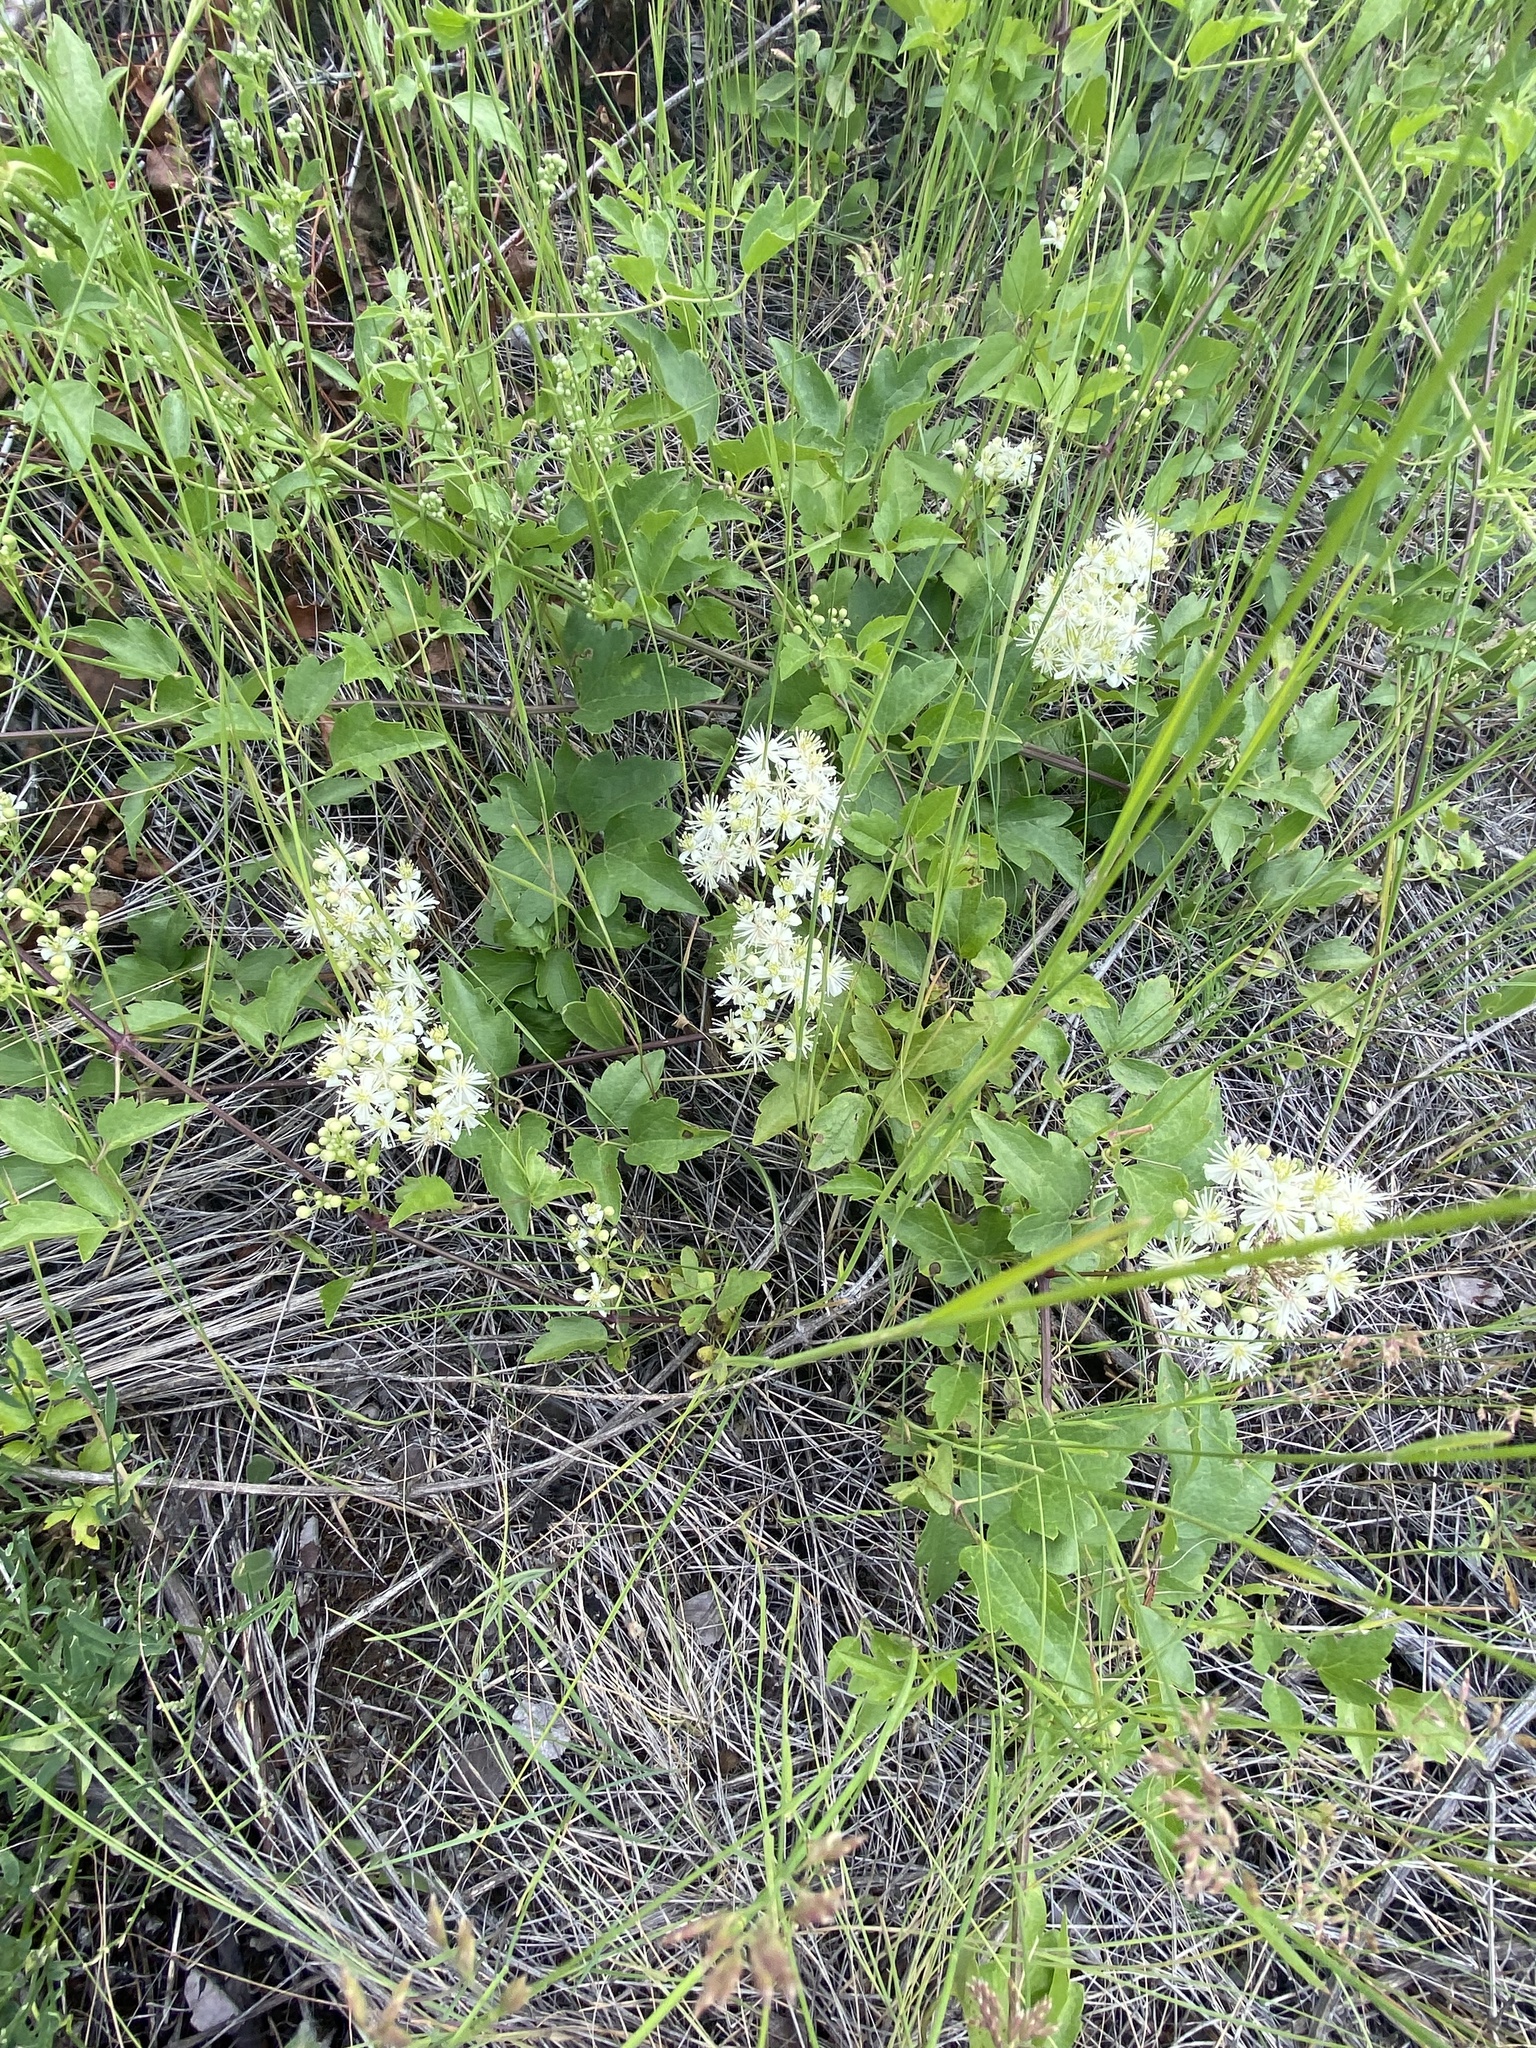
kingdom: Plantae
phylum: Tracheophyta
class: Magnoliopsida
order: Ranunculales
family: Ranunculaceae
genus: Clematis
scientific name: Clematis ligusticifolia
